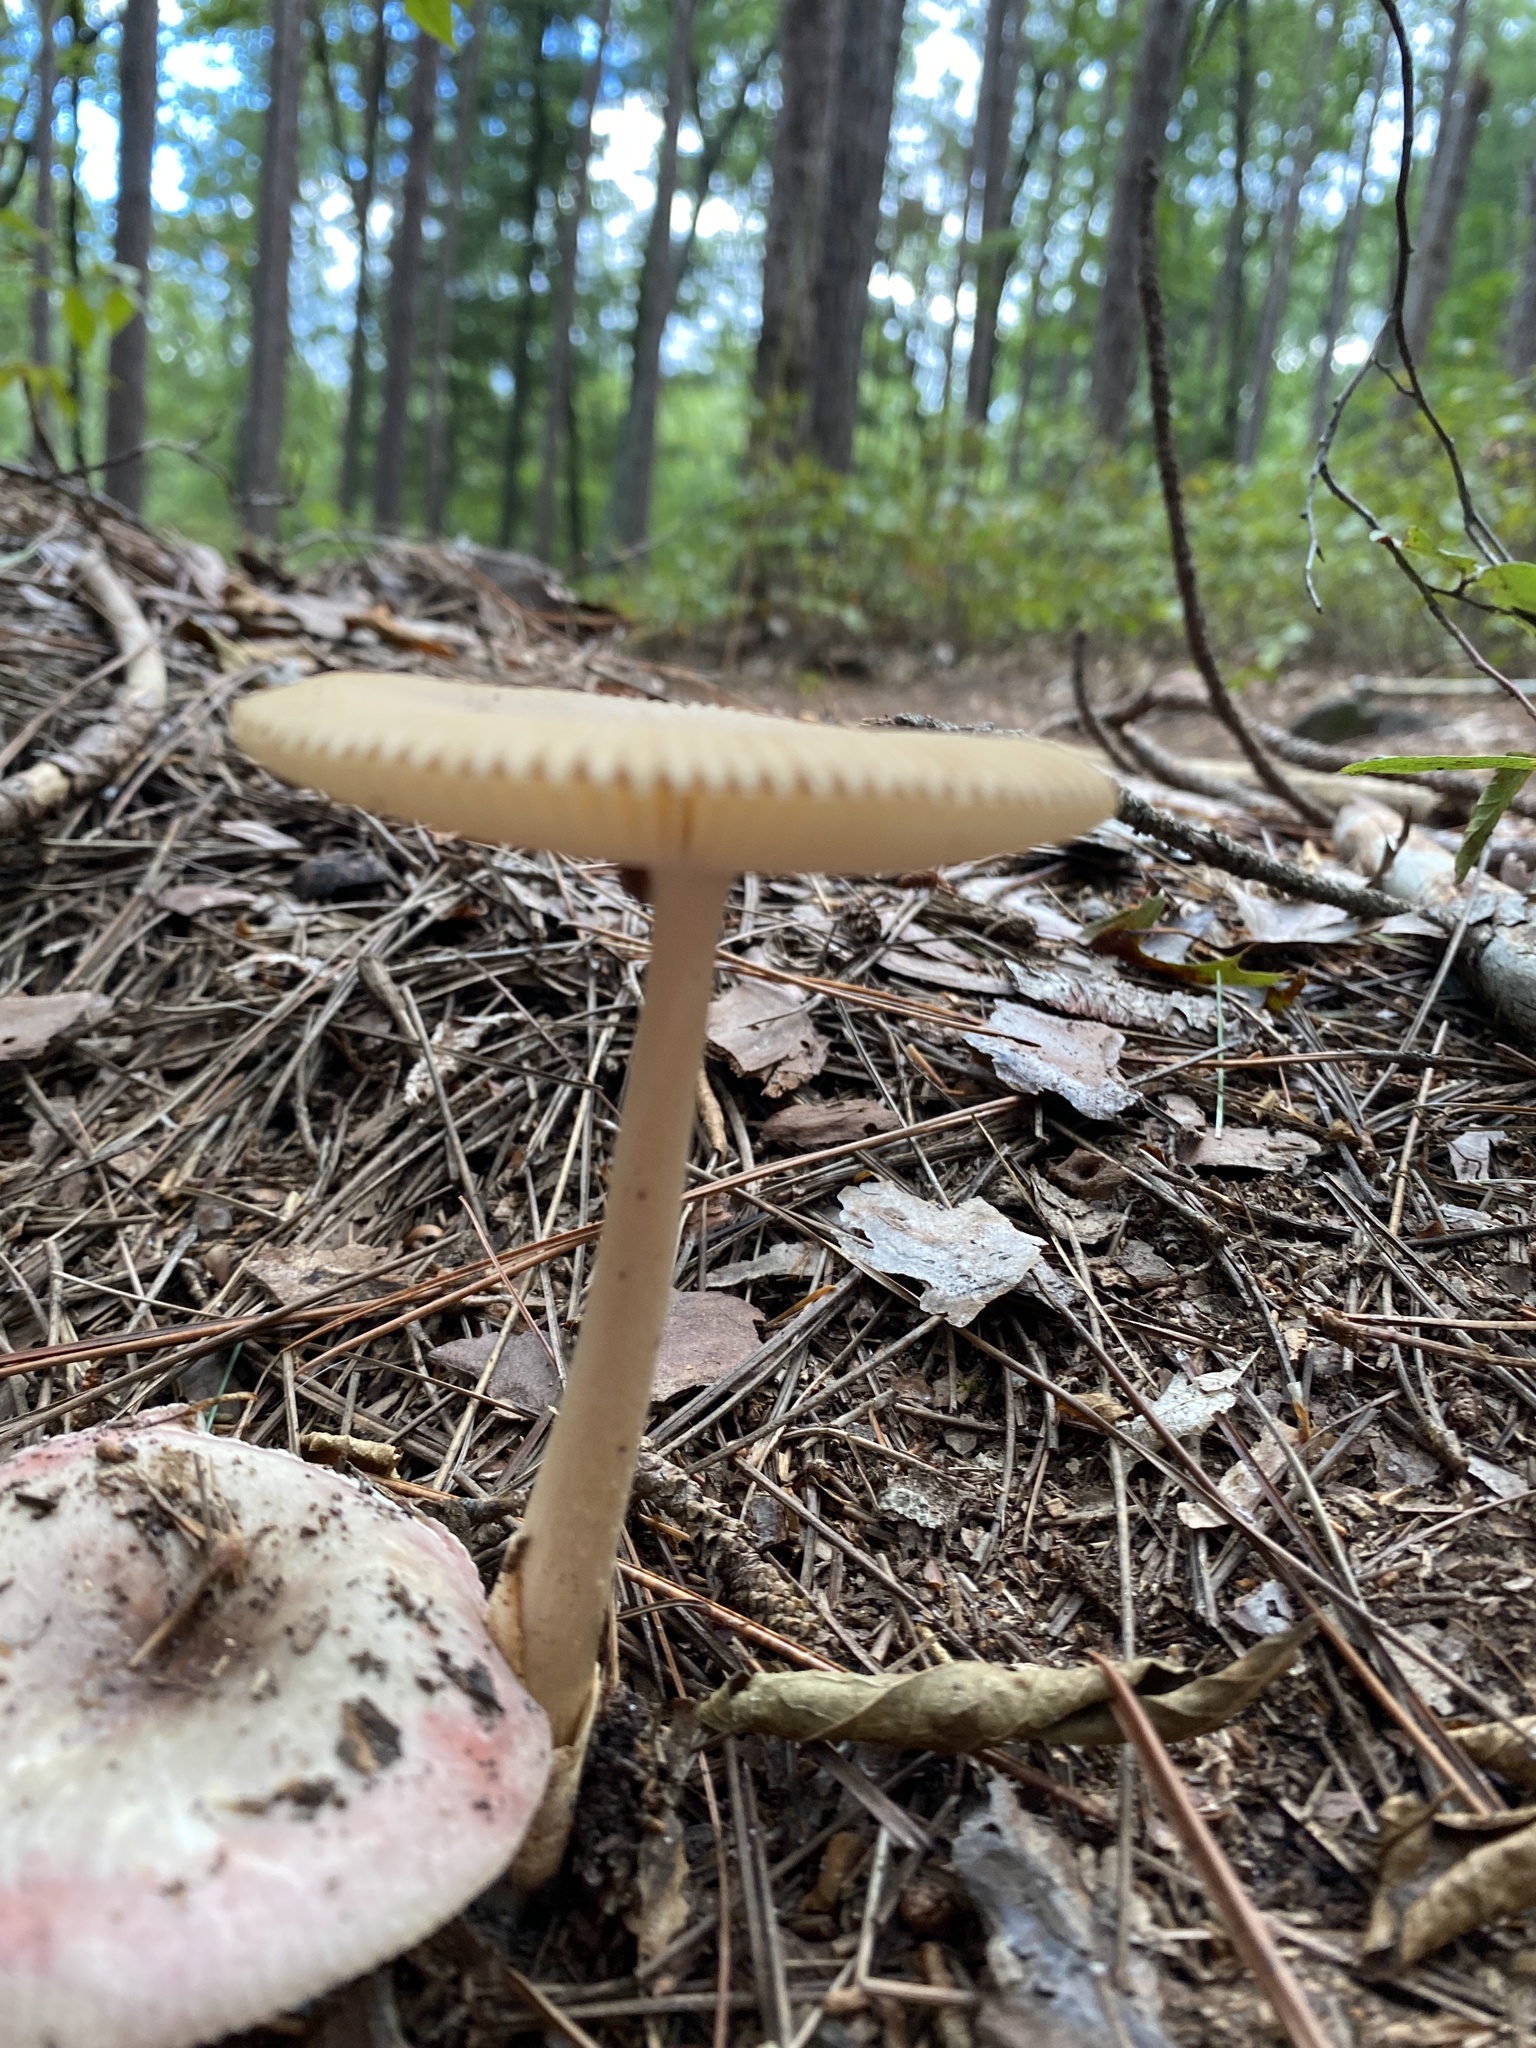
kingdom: Fungi
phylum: Basidiomycota
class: Agaricomycetes
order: Agaricales
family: Amanitaceae
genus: Amanita
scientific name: Amanita fulva
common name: Tawny grisette
